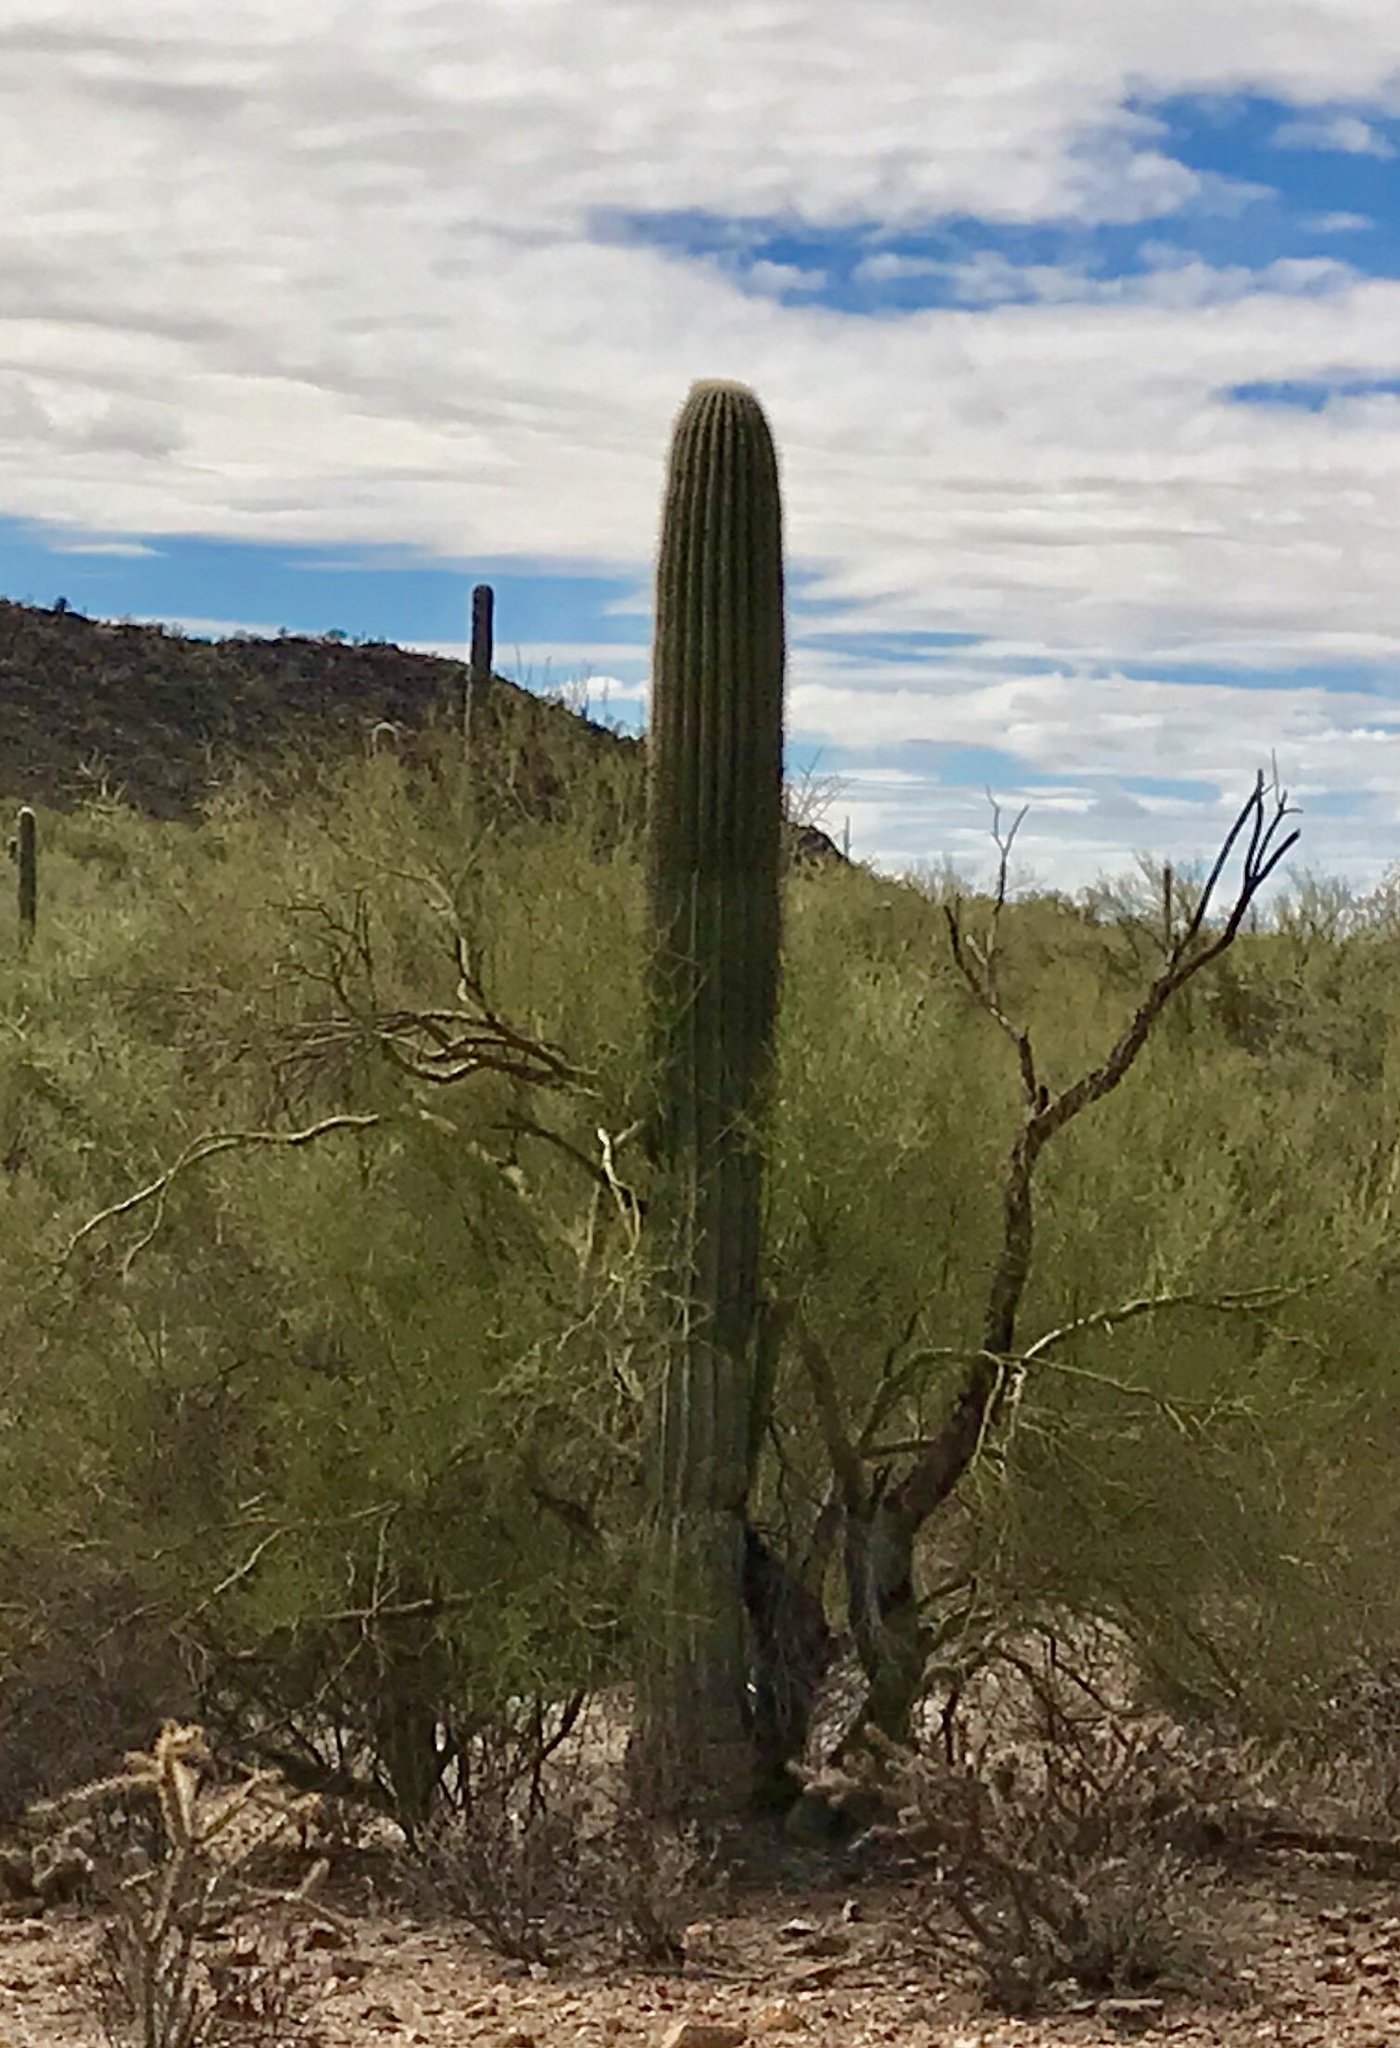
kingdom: Plantae
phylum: Tracheophyta
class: Magnoliopsida
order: Caryophyllales
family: Cactaceae
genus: Carnegiea
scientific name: Carnegiea gigantea
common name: Saguaro
